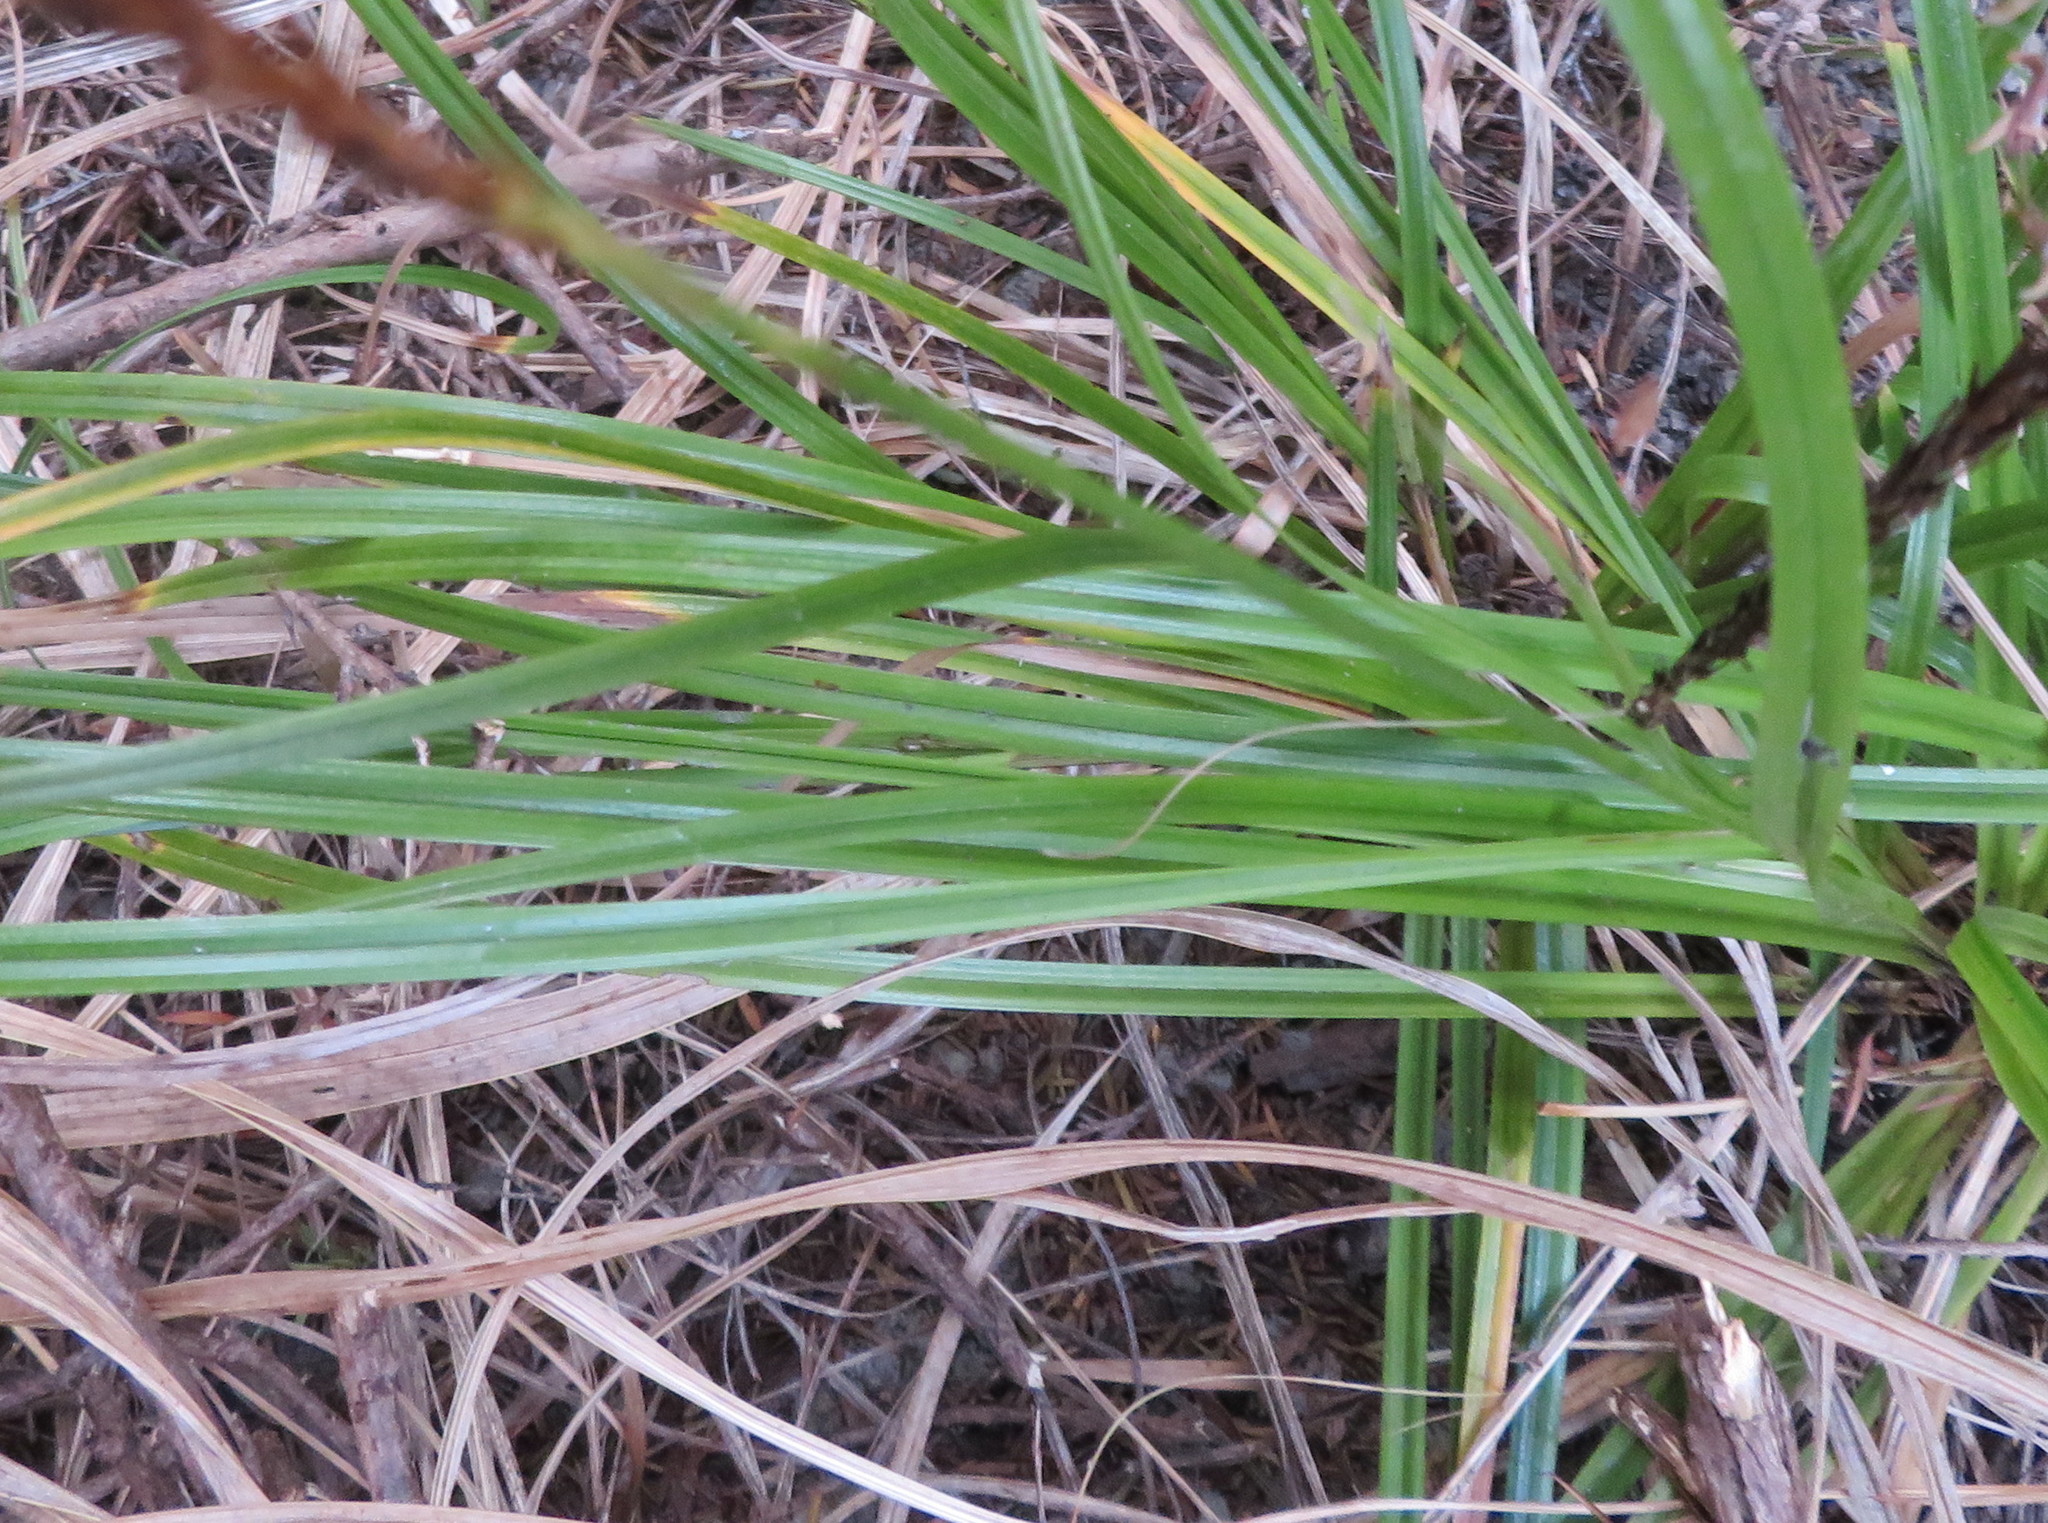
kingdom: Plantae
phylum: Tracheophyta
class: Liliopsida
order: Poales
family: Cyperaceae
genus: Carex
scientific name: Carex uncinata
